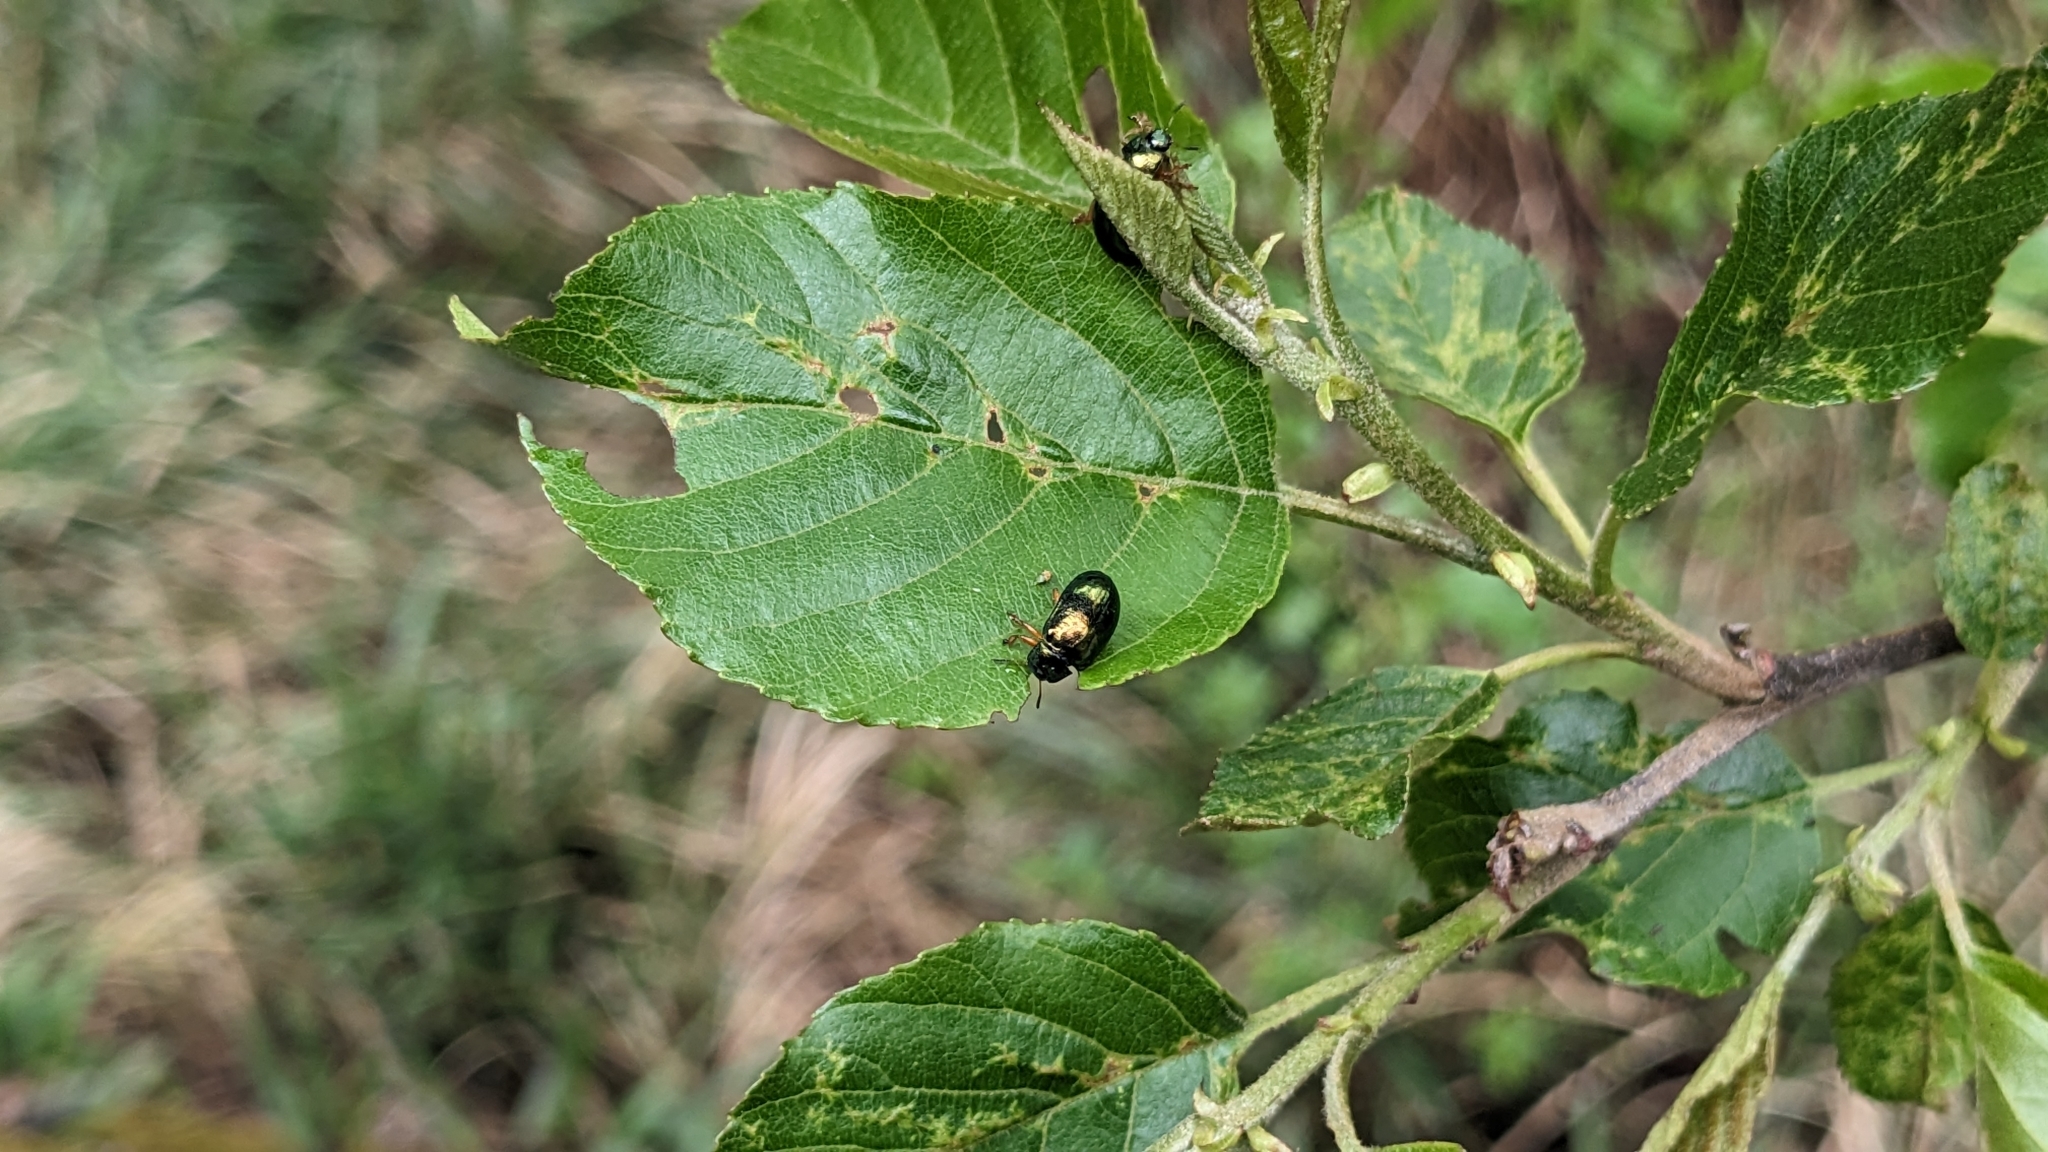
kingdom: Animalia
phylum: Arthropoda
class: Insecta
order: Coleoptera
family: Chrysomelidae
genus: Plagiosterna
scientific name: Plagiosterna aenea
